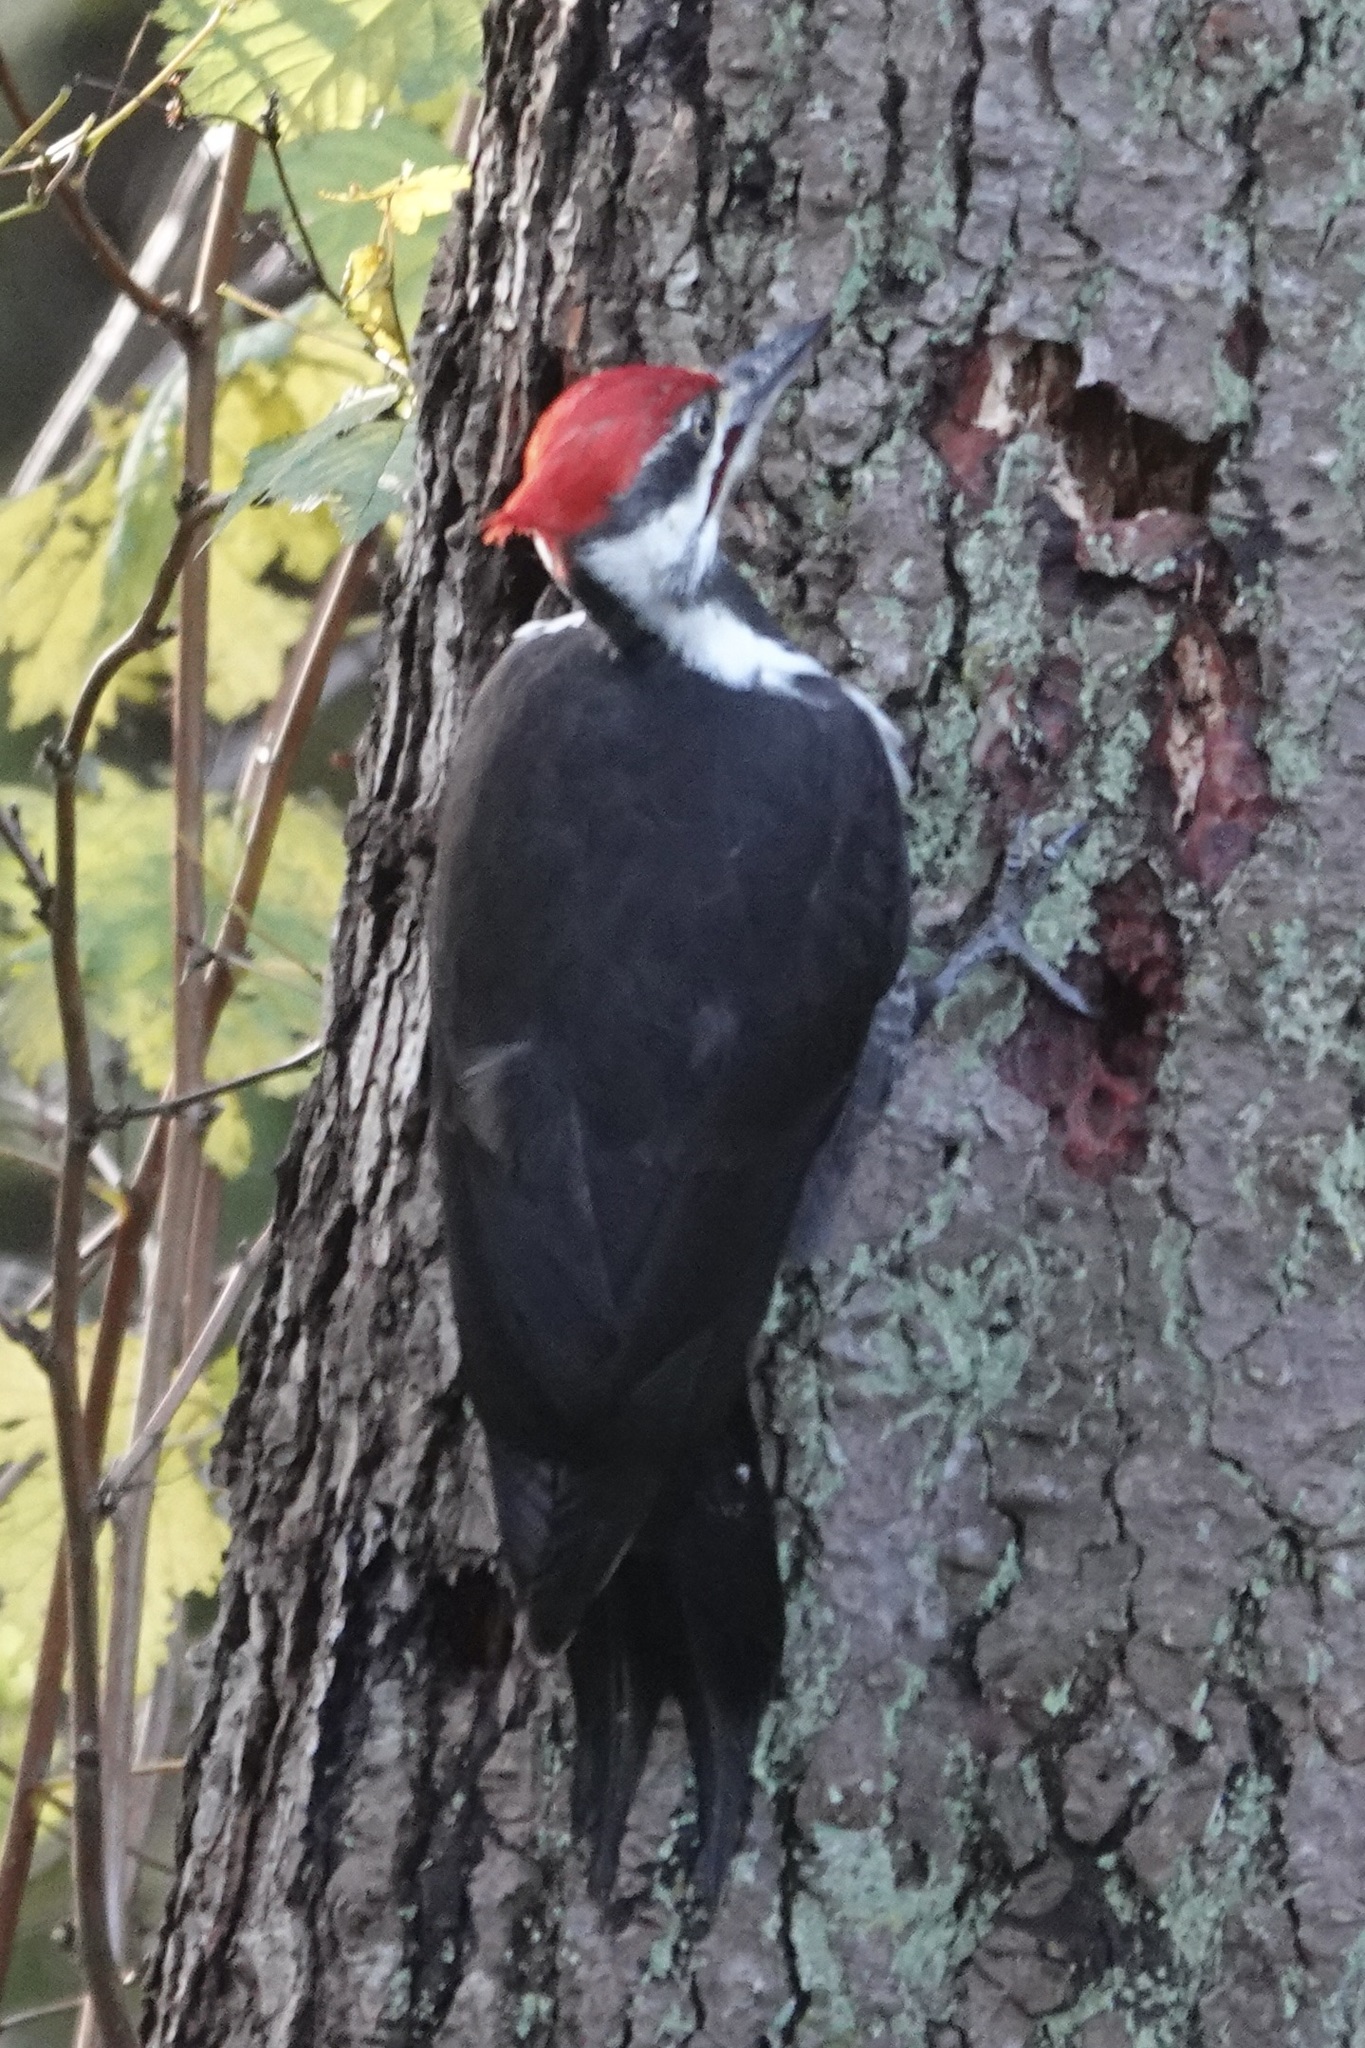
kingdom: Animalia
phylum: Chordata
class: Aves
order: Piciformes
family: Picidae
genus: Dryocopus
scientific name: Dryocopus pileatus
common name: Pileated woodpecker
